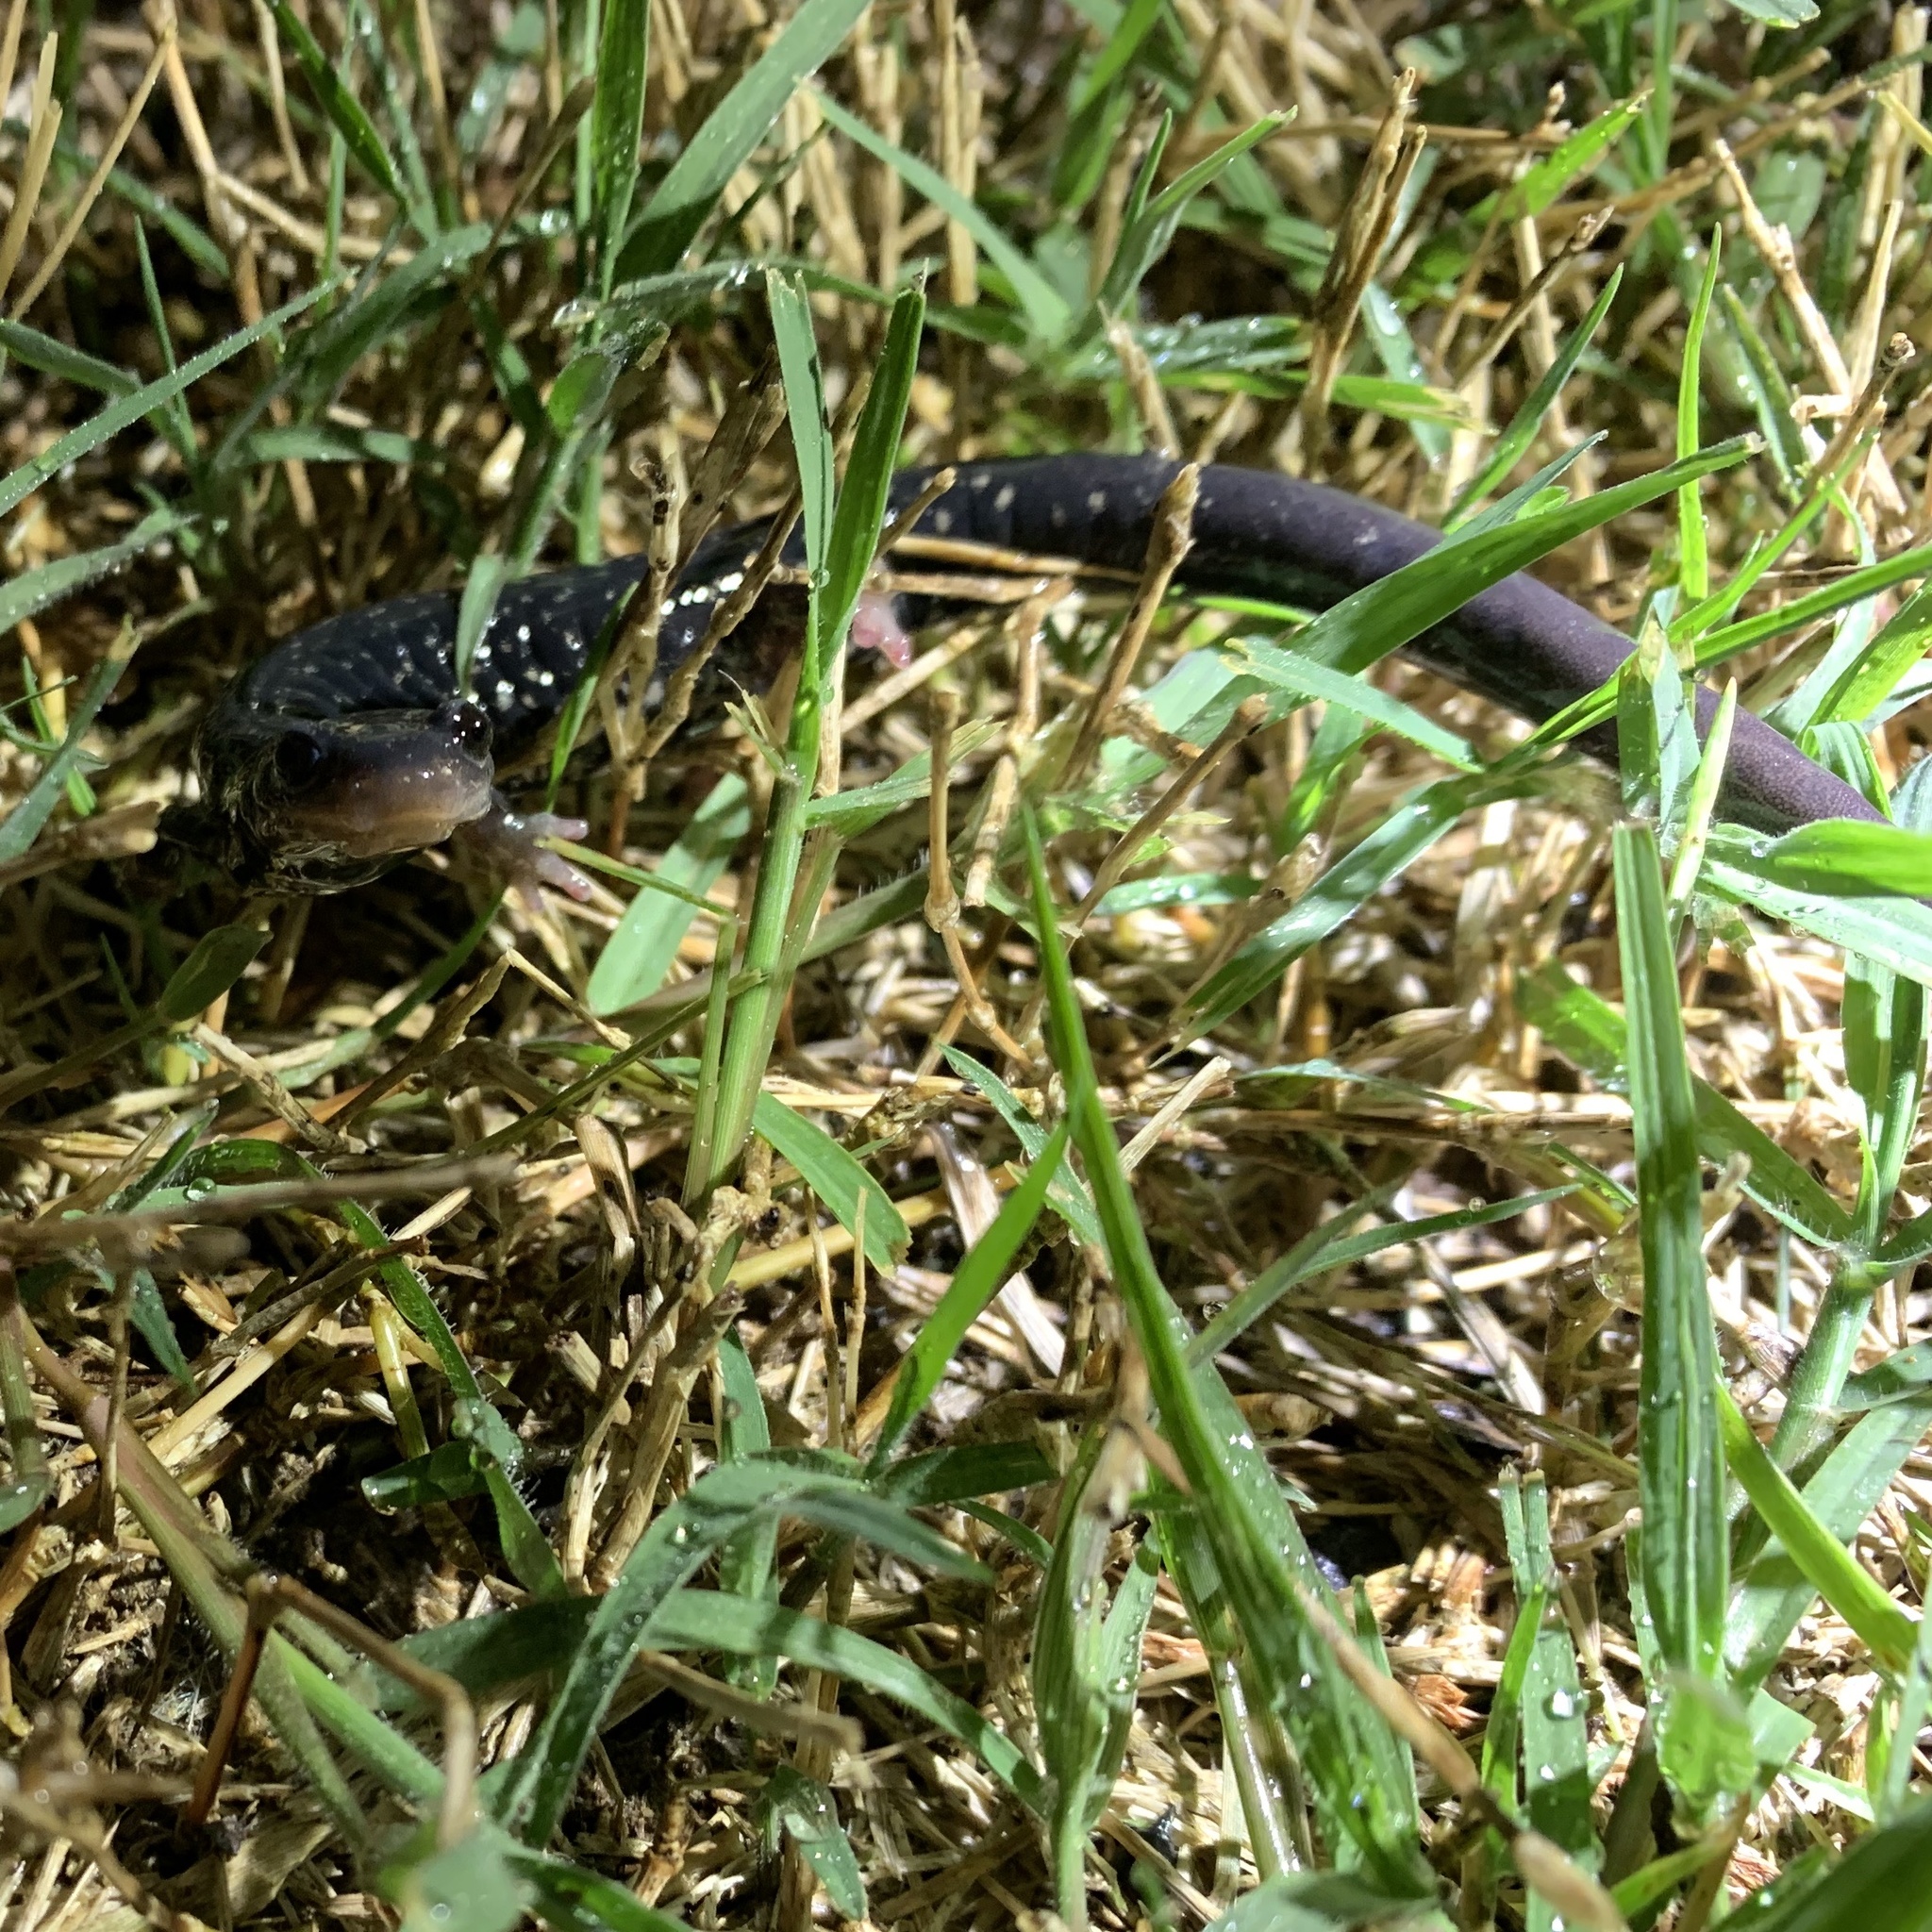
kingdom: Animalia
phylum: Chordata
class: Amphibia
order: Caudata
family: Plethodontidae
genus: Plethodon
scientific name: Plethodon glutinosus
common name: Northern slimy salamander
